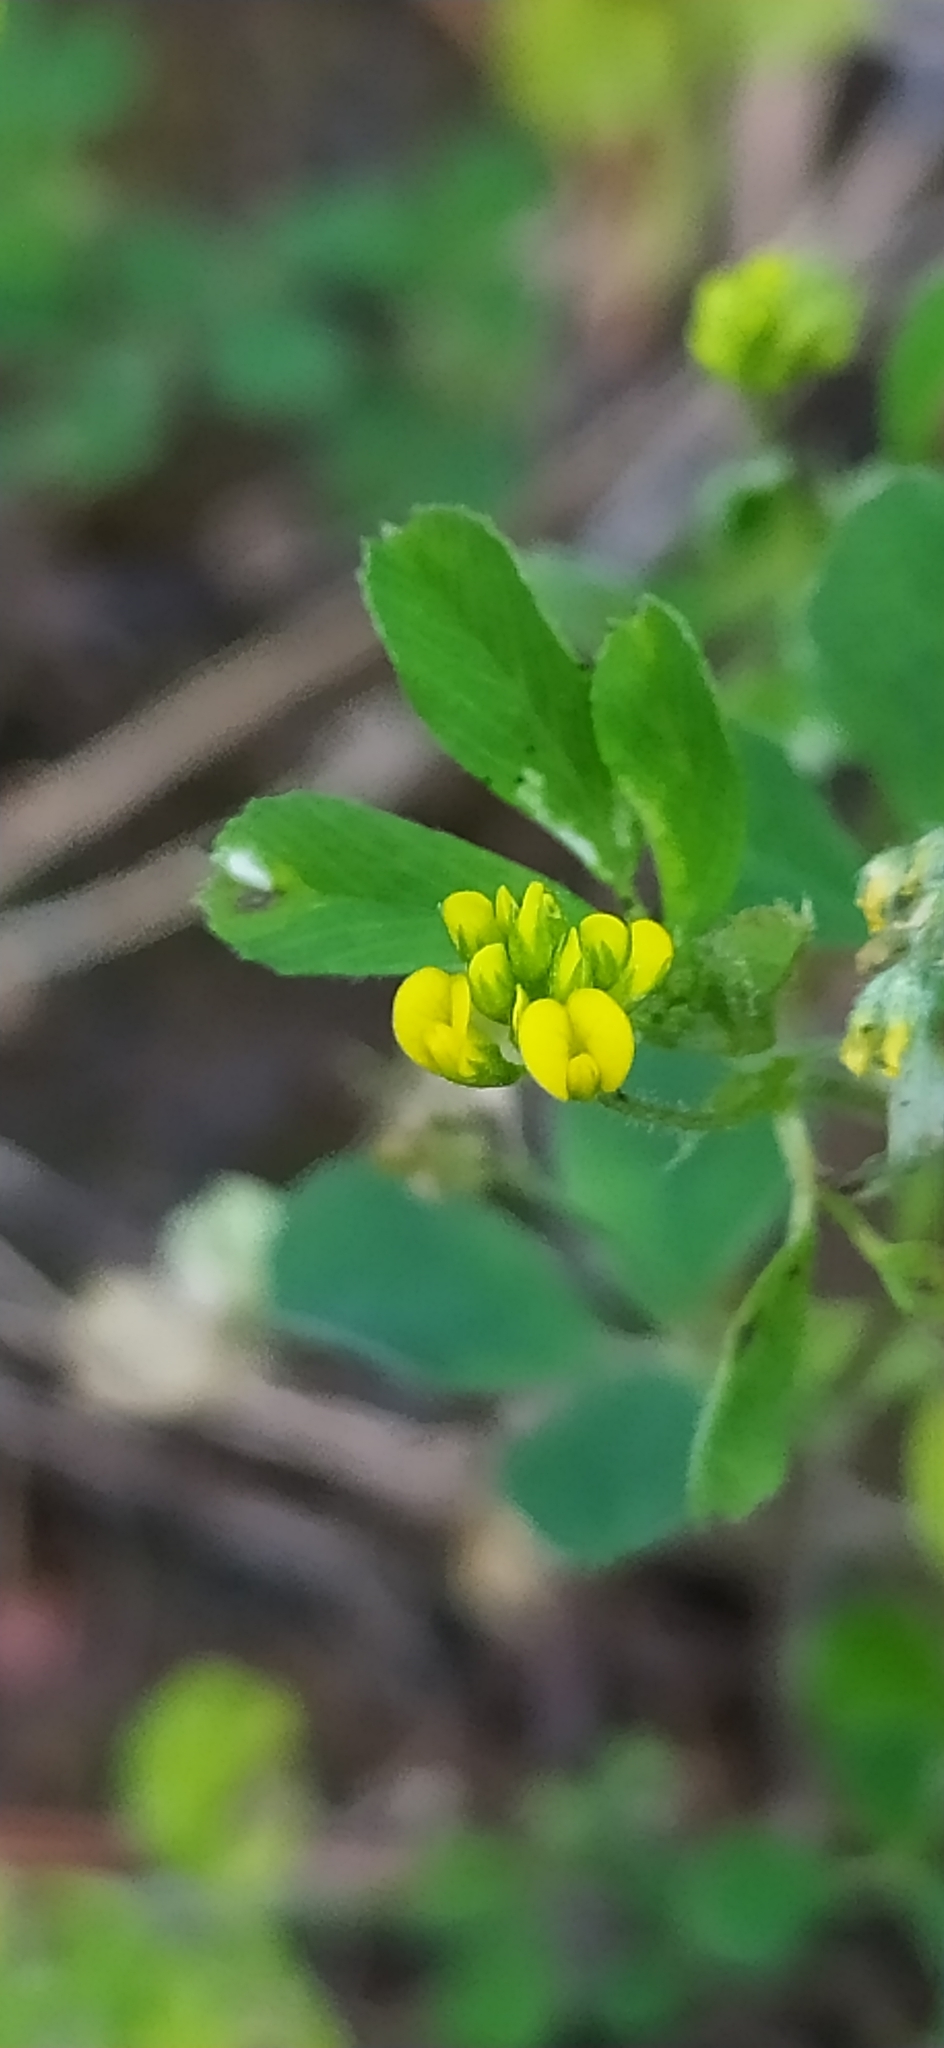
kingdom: Plantae
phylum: Tracheophyta
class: Magnoliopsida
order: Fabales
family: Fabaceae
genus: Medicago
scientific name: Medicago lupulina
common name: Black medick
